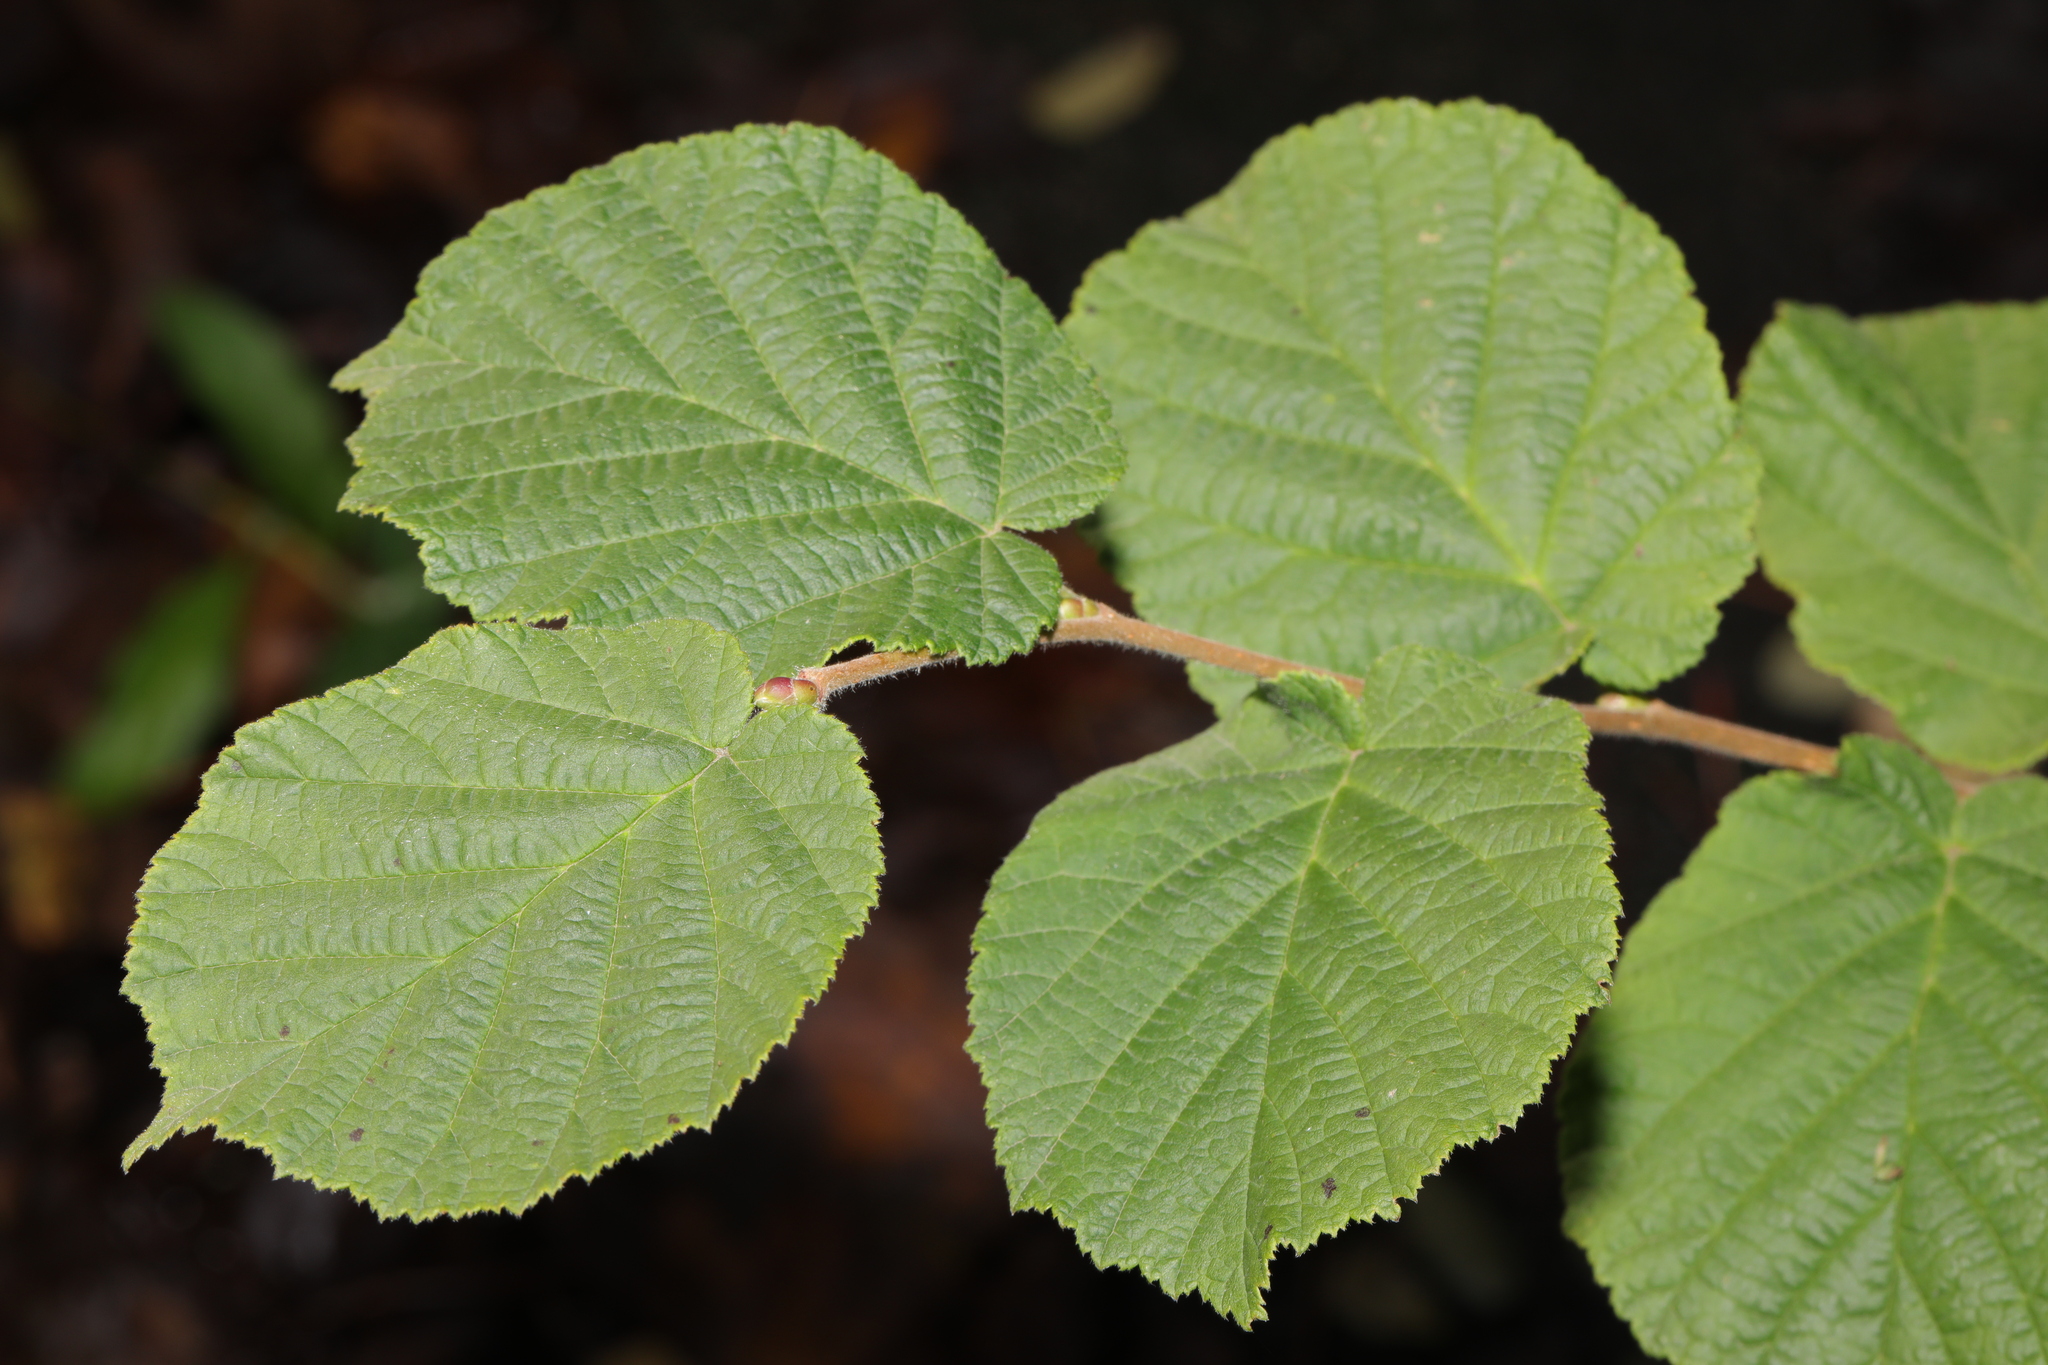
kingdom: Plantae
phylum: Tracheophyta
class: Magnoliopsida
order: Fagales
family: Betulaceae
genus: Corylus
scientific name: Corylus avellana
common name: European hazel
